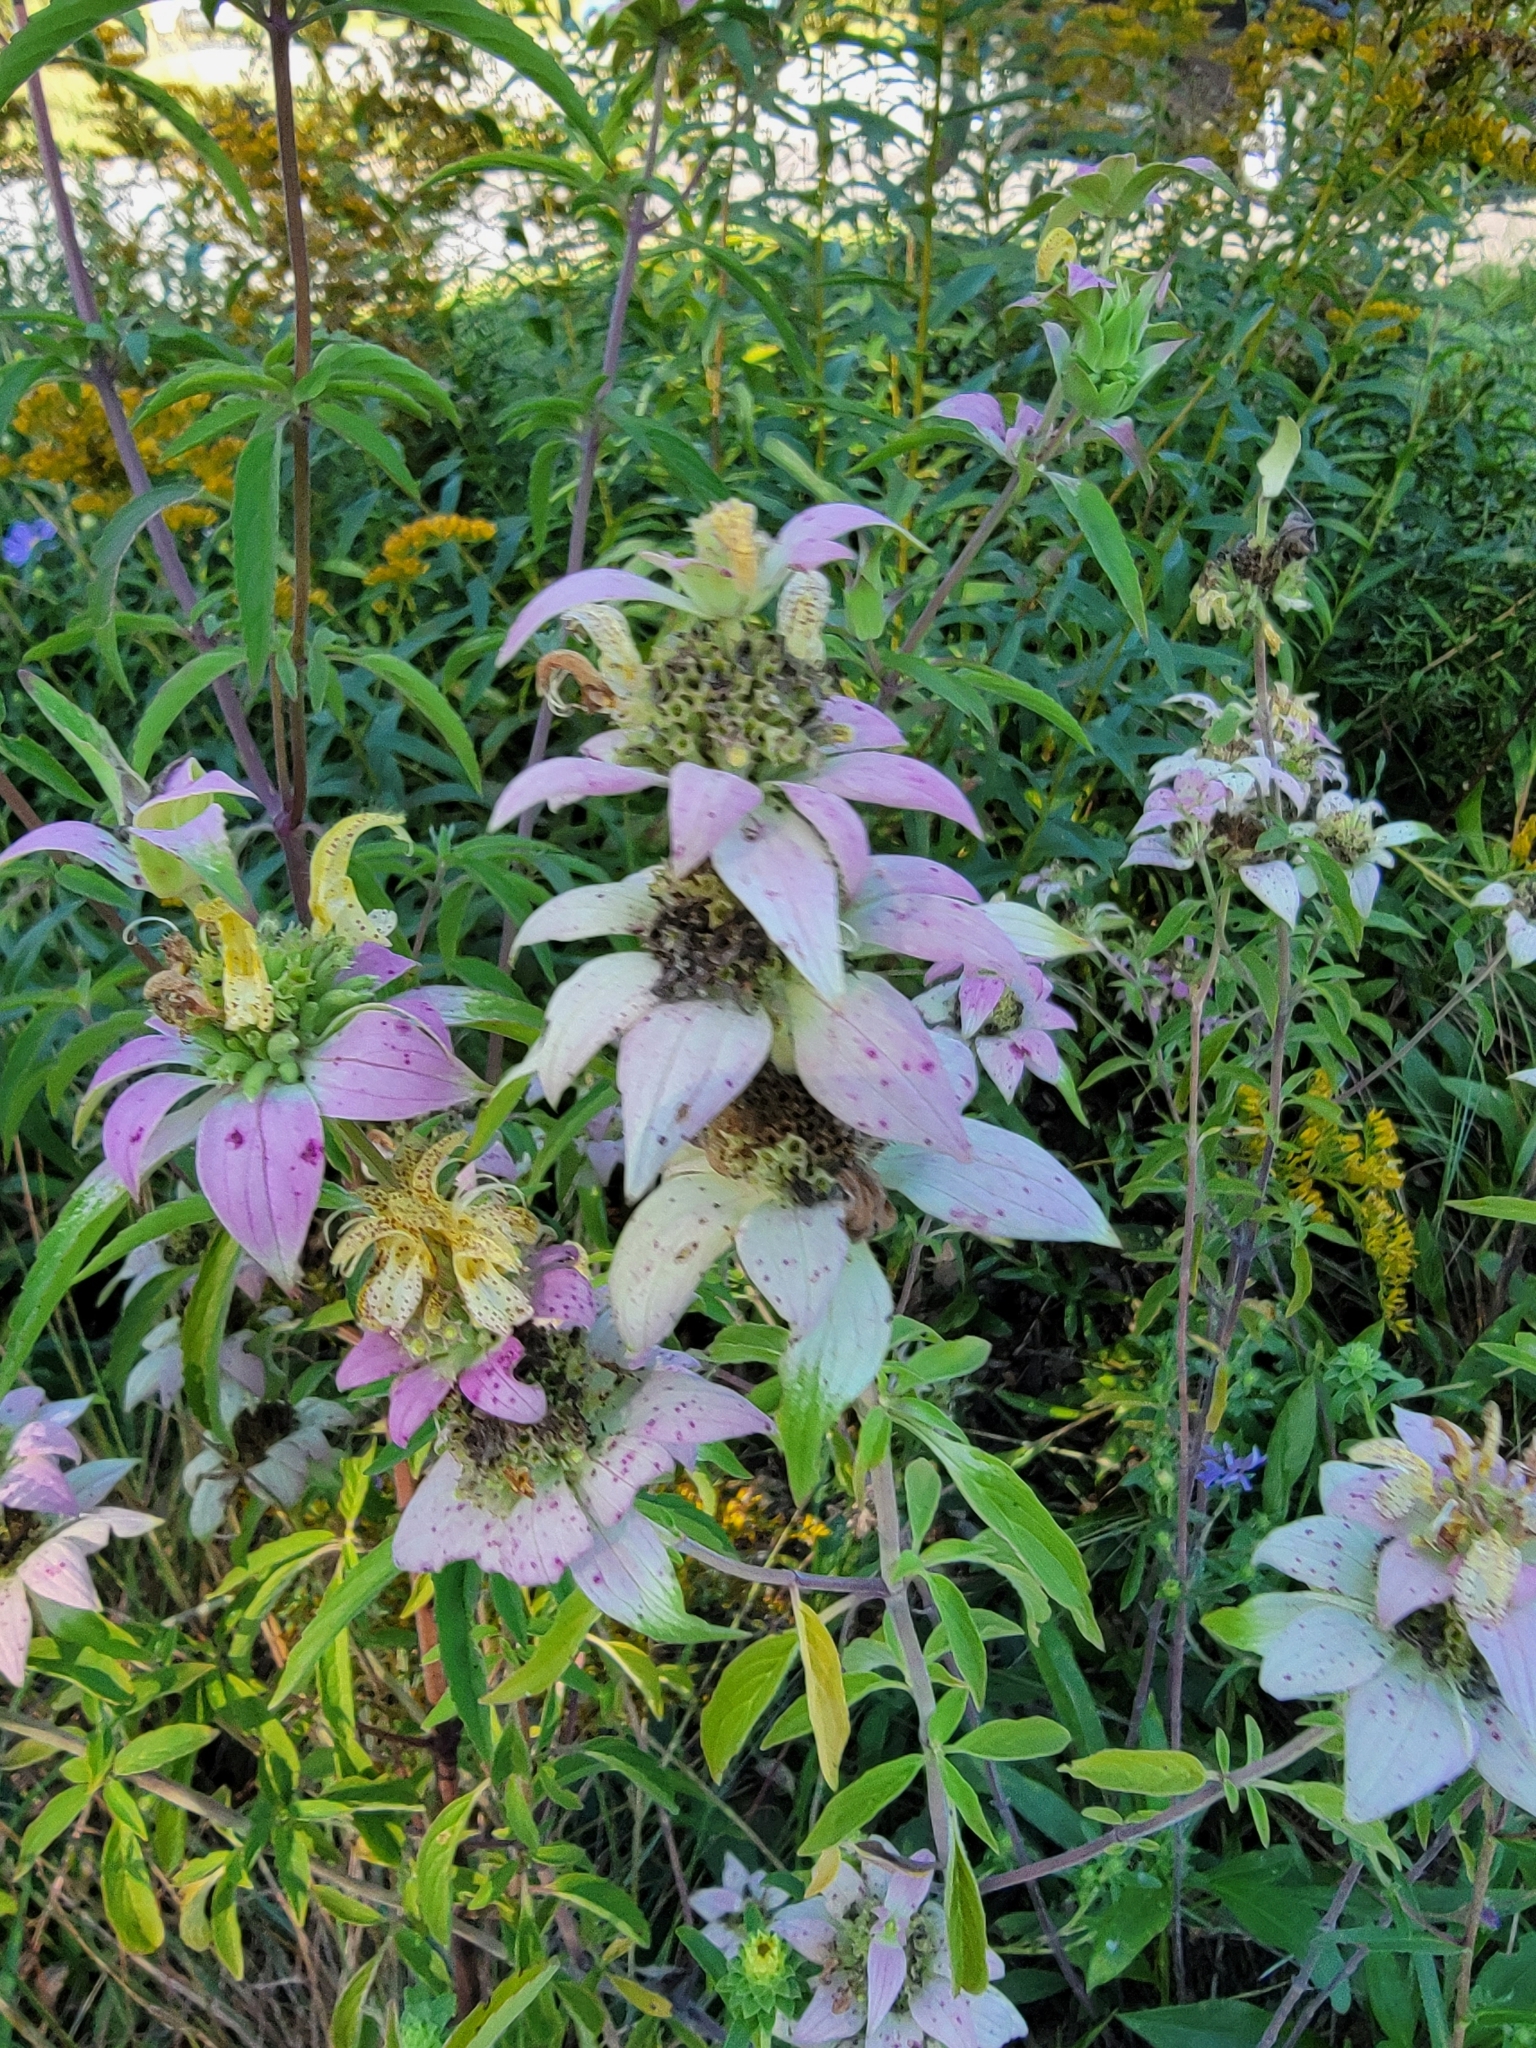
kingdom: Plantae
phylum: Tracheophyta
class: Magnoliopsida
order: Lamiales
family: Lamiaceae
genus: Monarda
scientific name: Monarda punctata
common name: Dotted monarda
